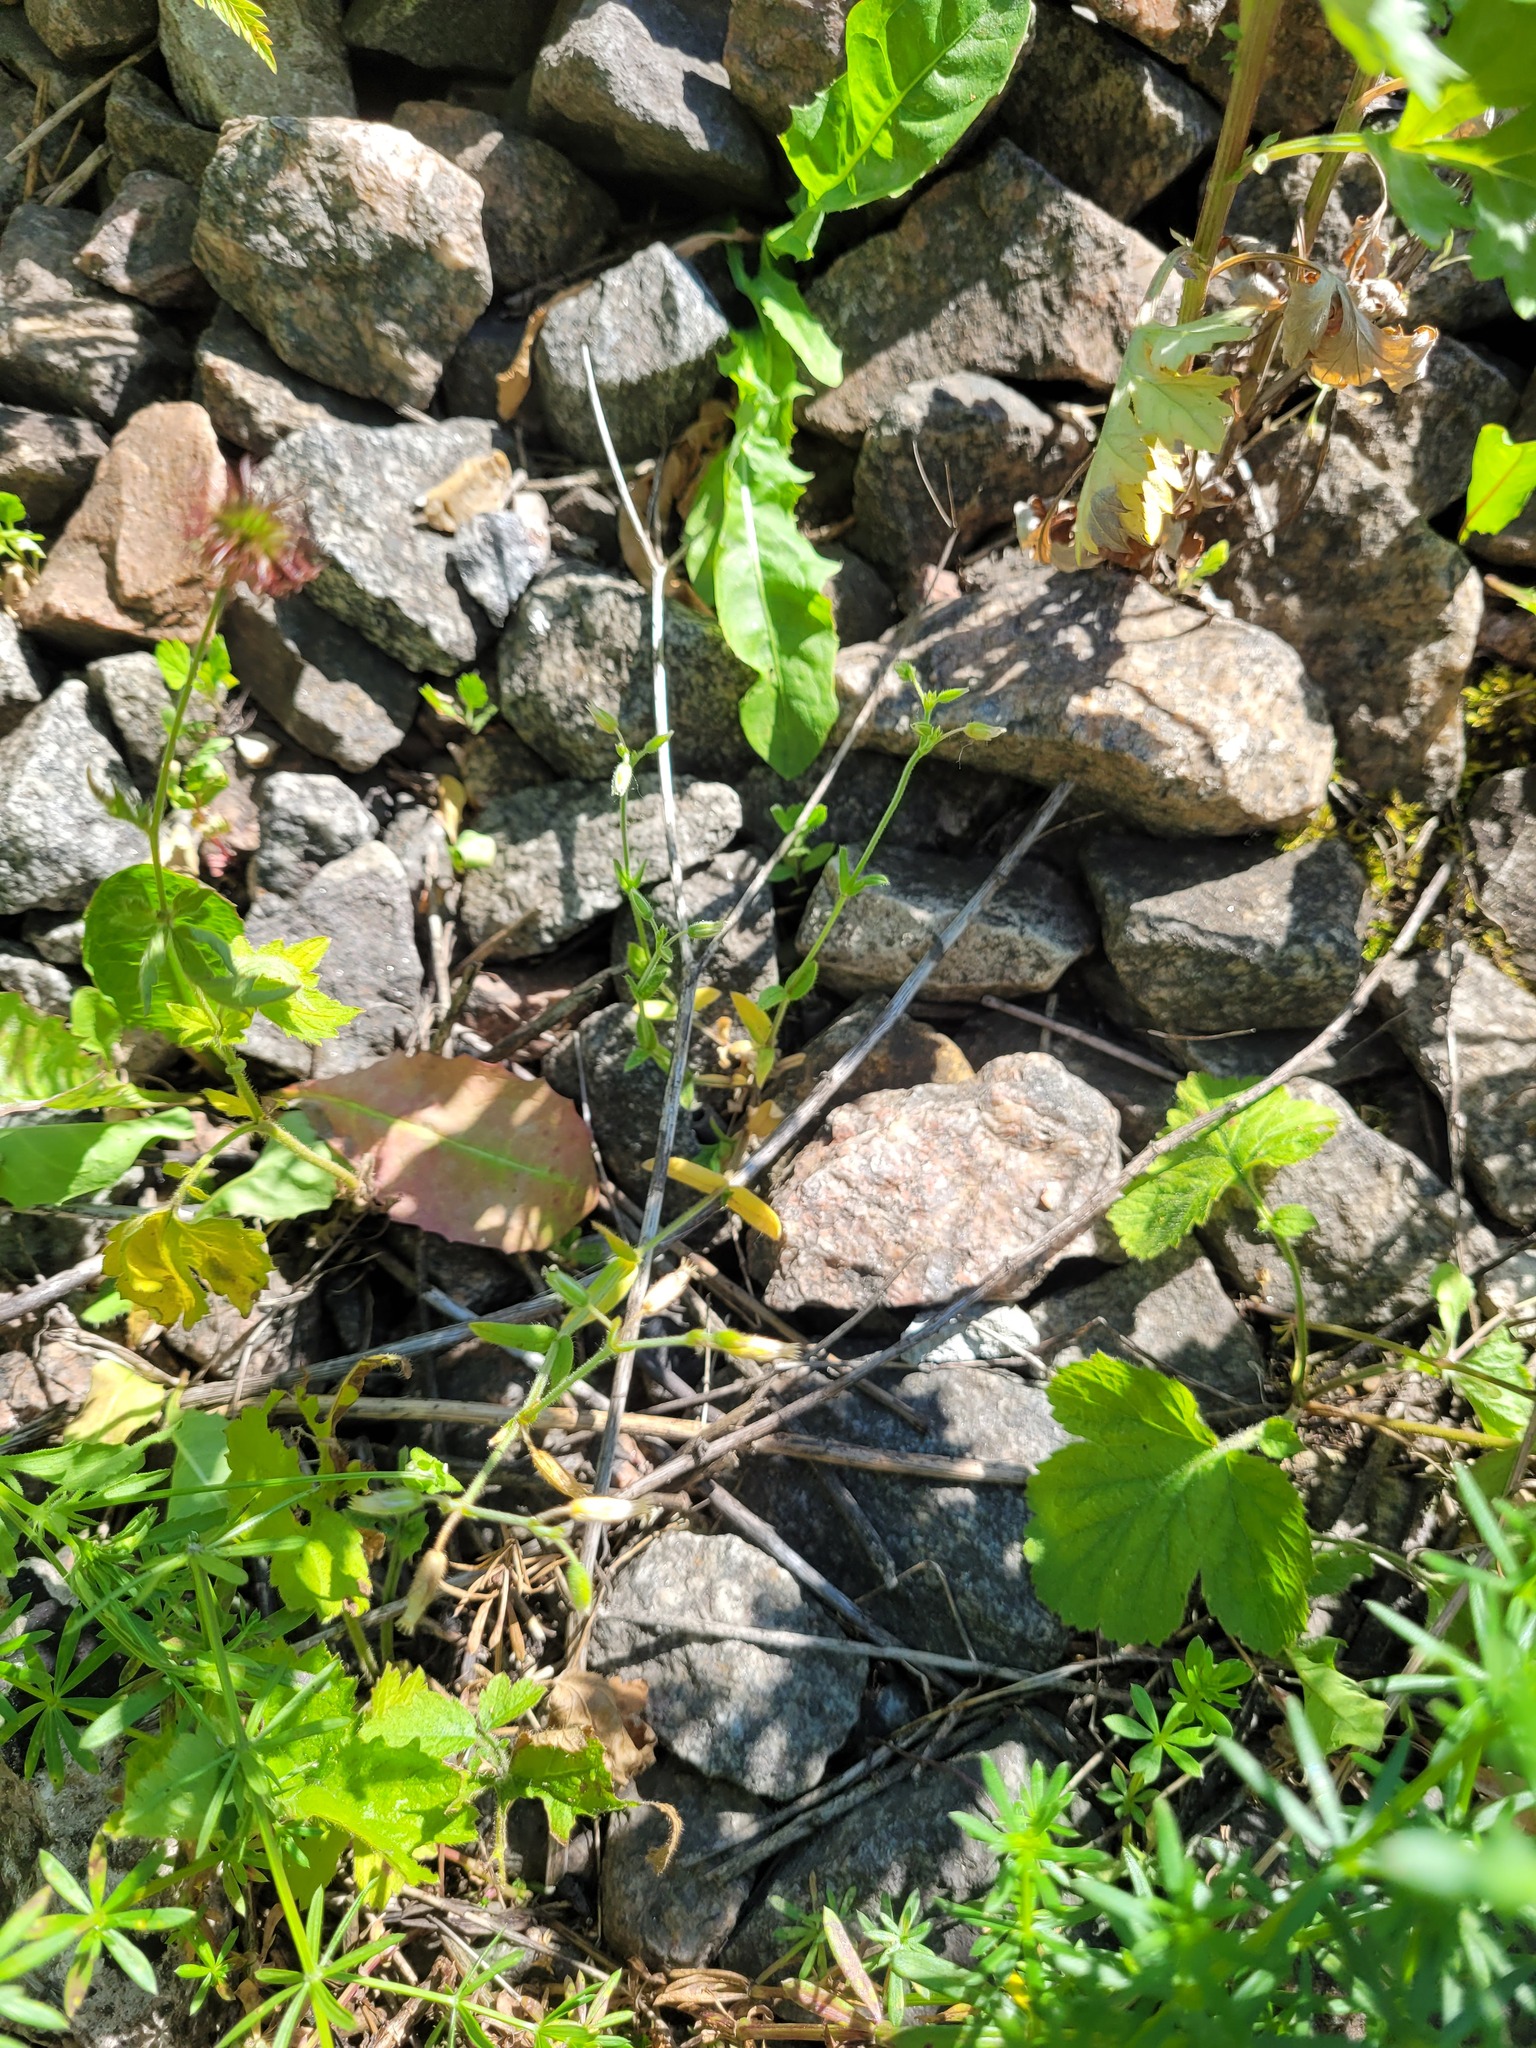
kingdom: Plantae
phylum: Tracheophyta
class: Magnoliopsida
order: Caryophyllales
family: Caryophyllaceae
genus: Cerastium
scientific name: Cerastium holosteoides
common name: Big chickweed
